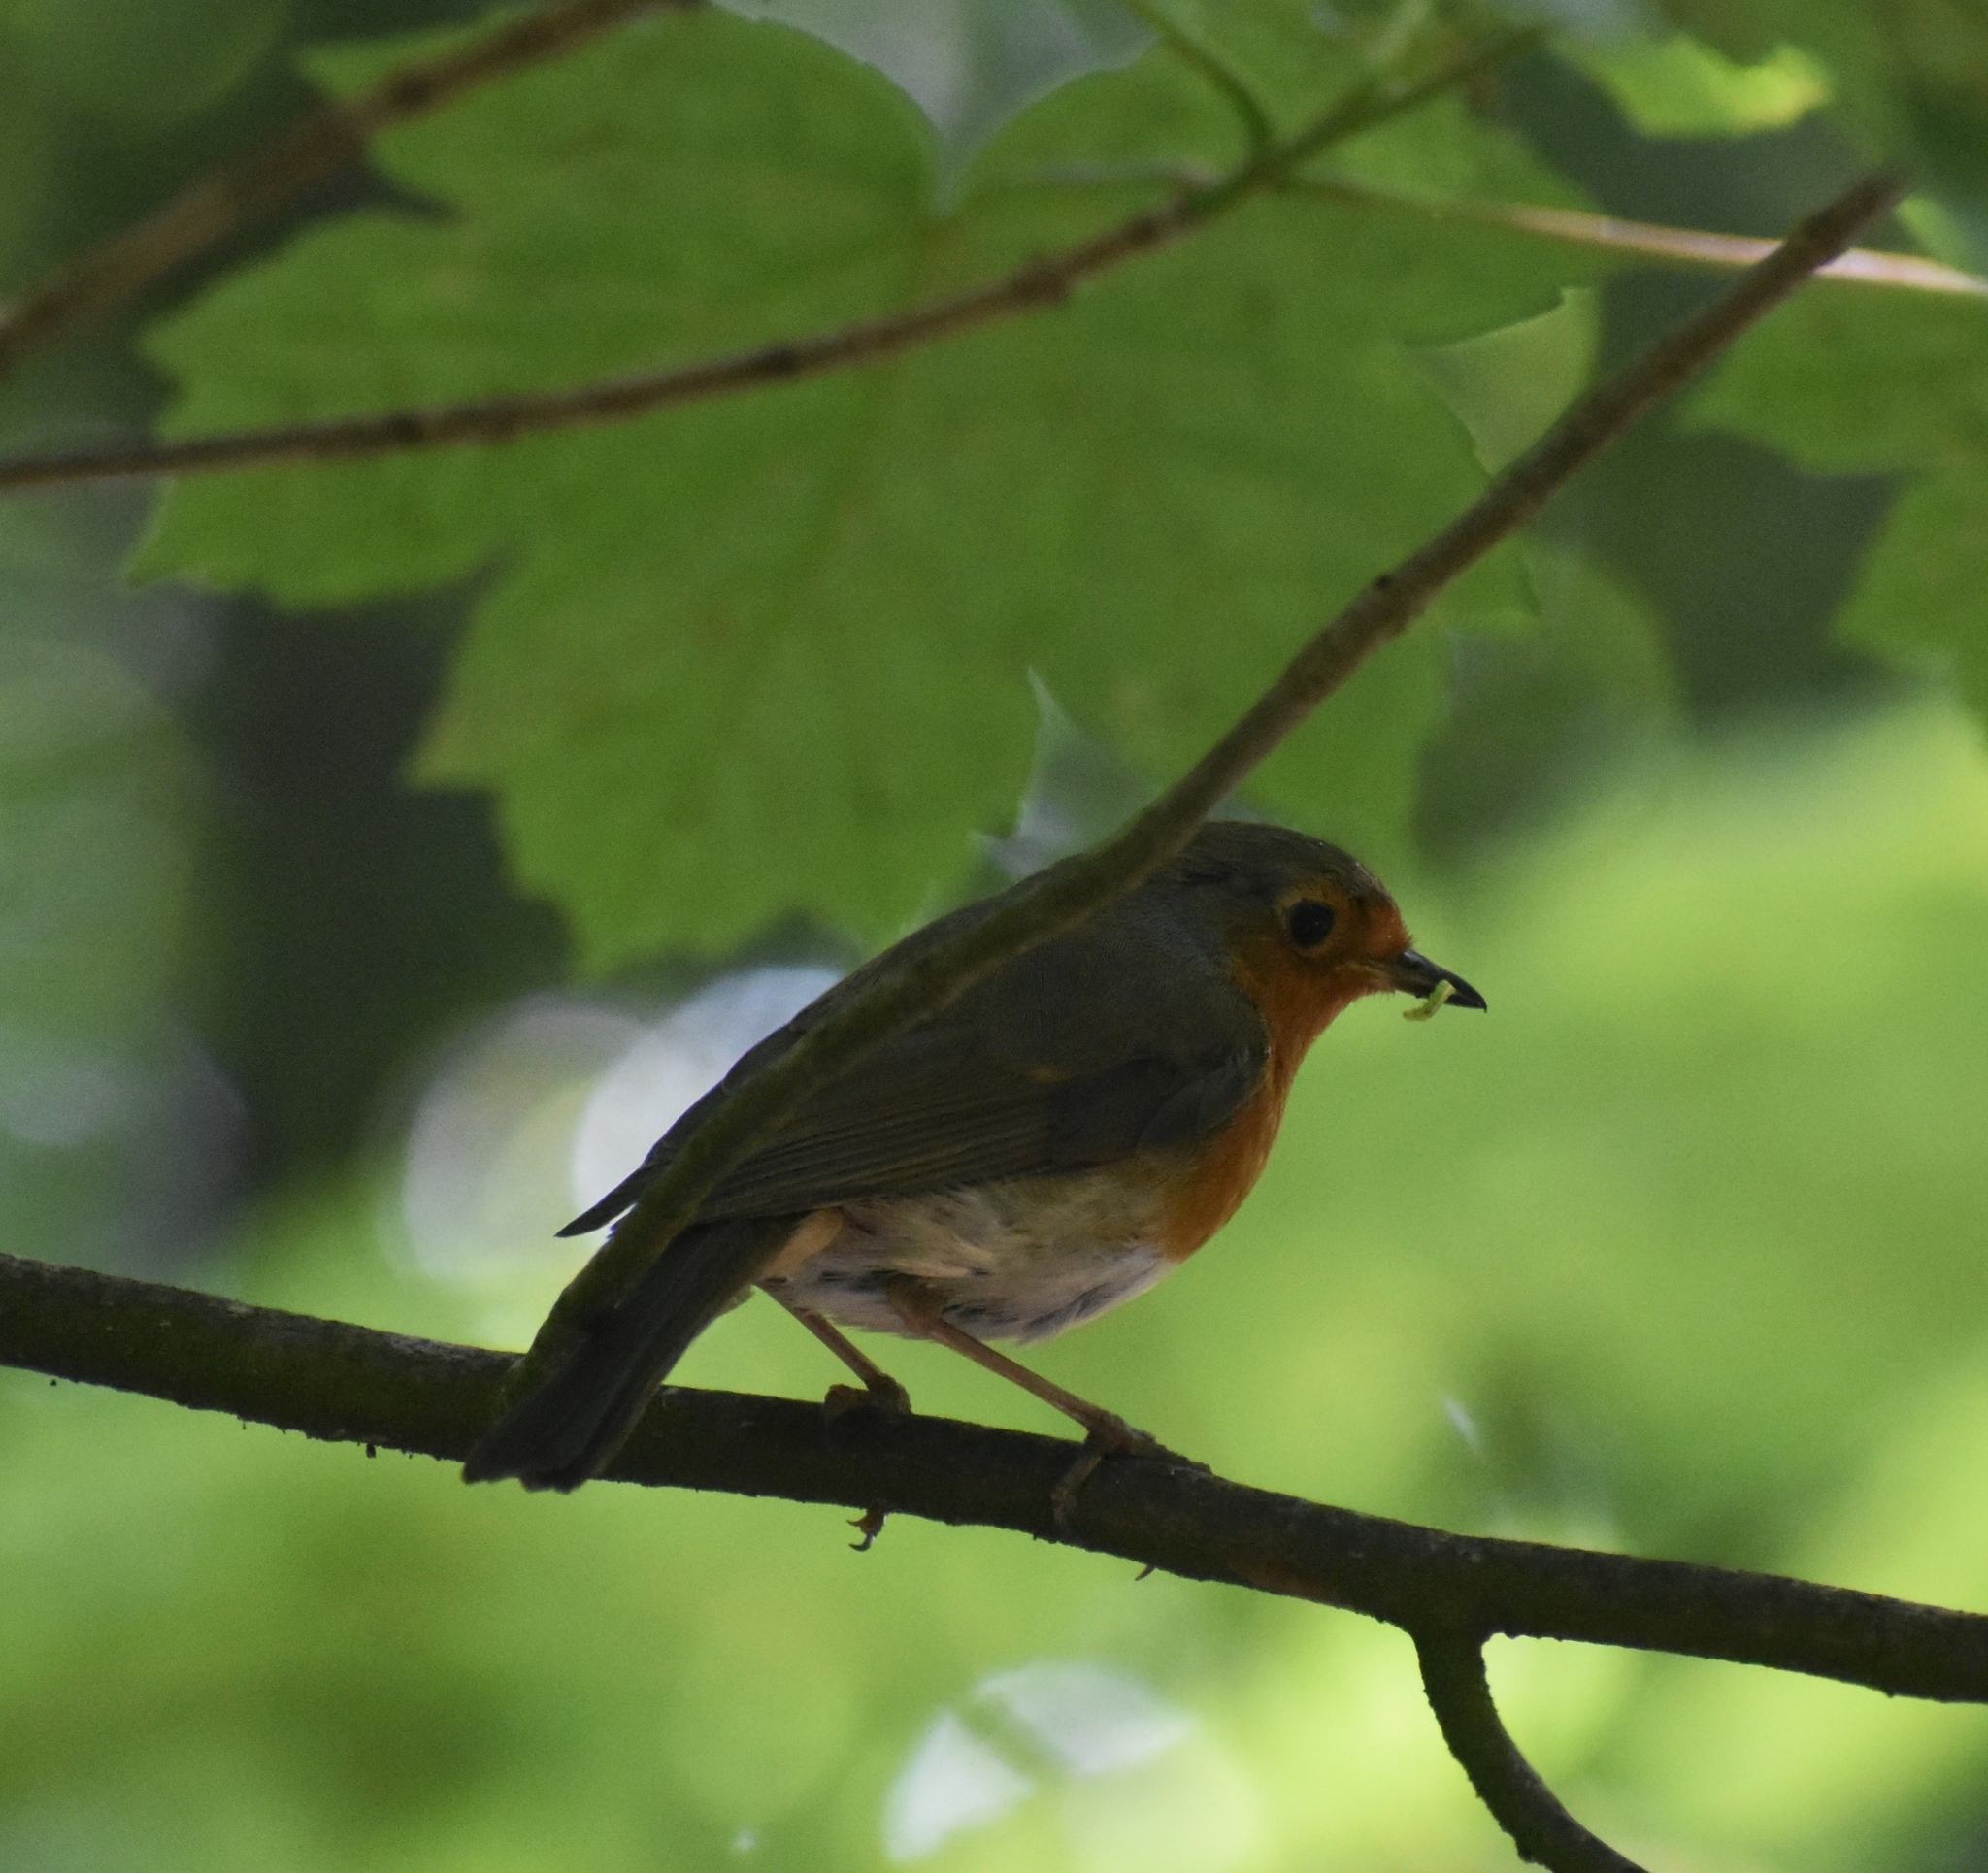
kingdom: Animalia
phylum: Chordata
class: Aves
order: Passeriformes
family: Muscicapidae
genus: Erithacus
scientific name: Erithacus rubecula
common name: European robin
